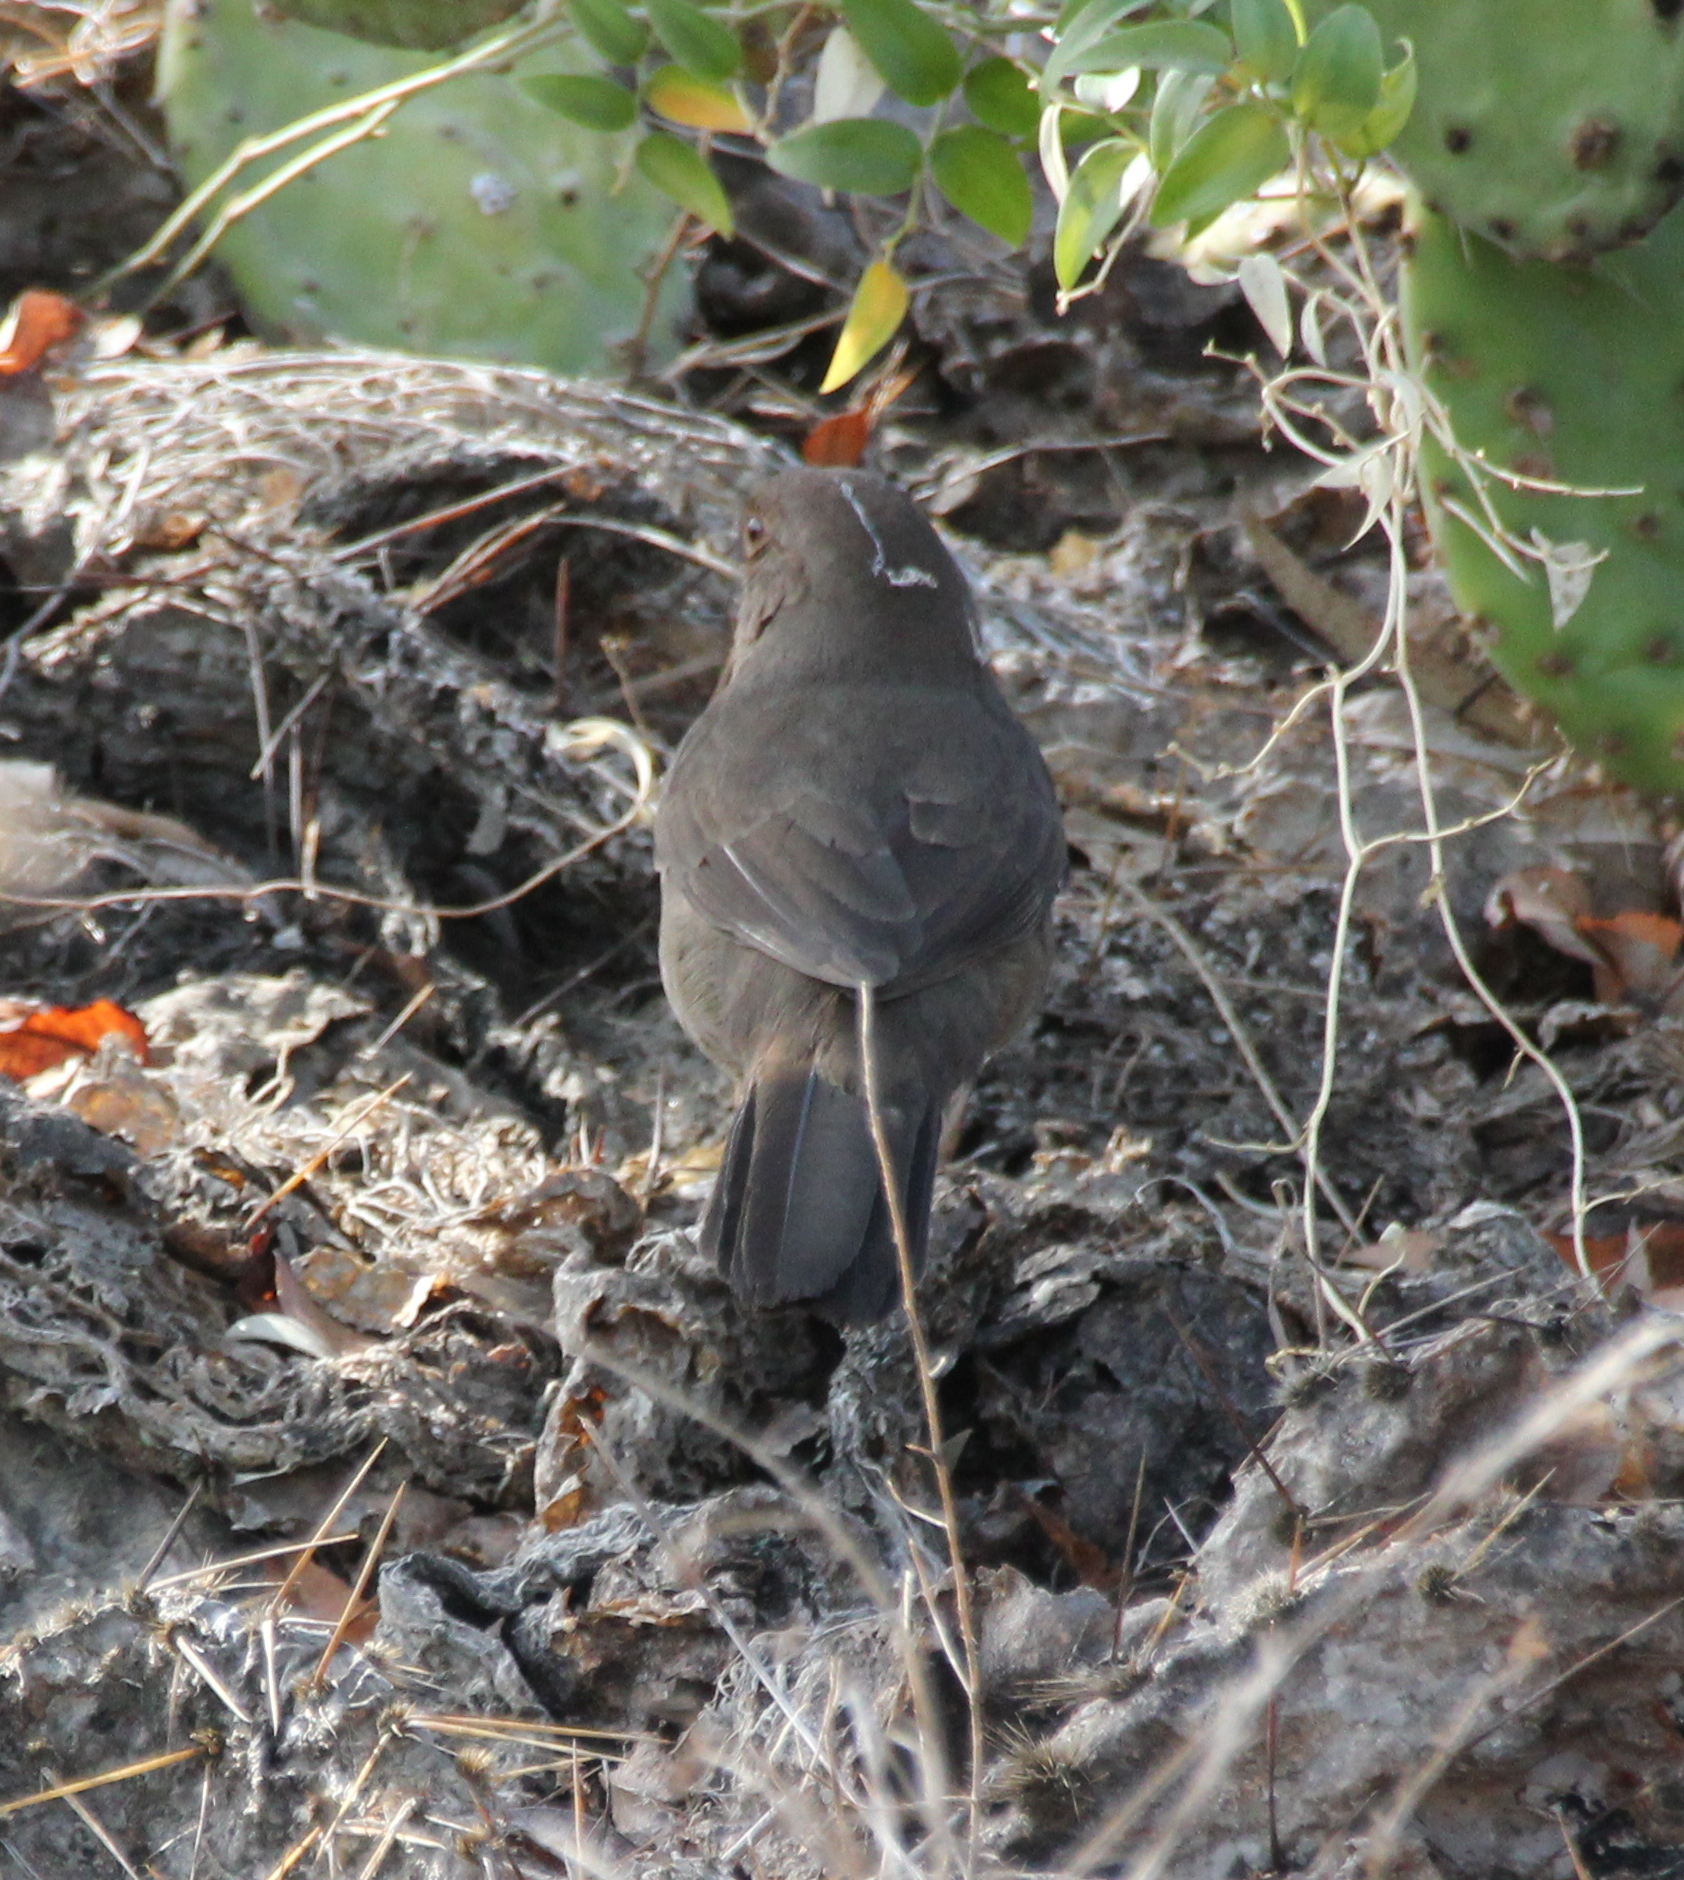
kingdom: Animalia
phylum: Chordata
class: Aves
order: Passeriformes
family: Passerellidae
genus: Melozone
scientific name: Melozone crissalis
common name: California towhee
